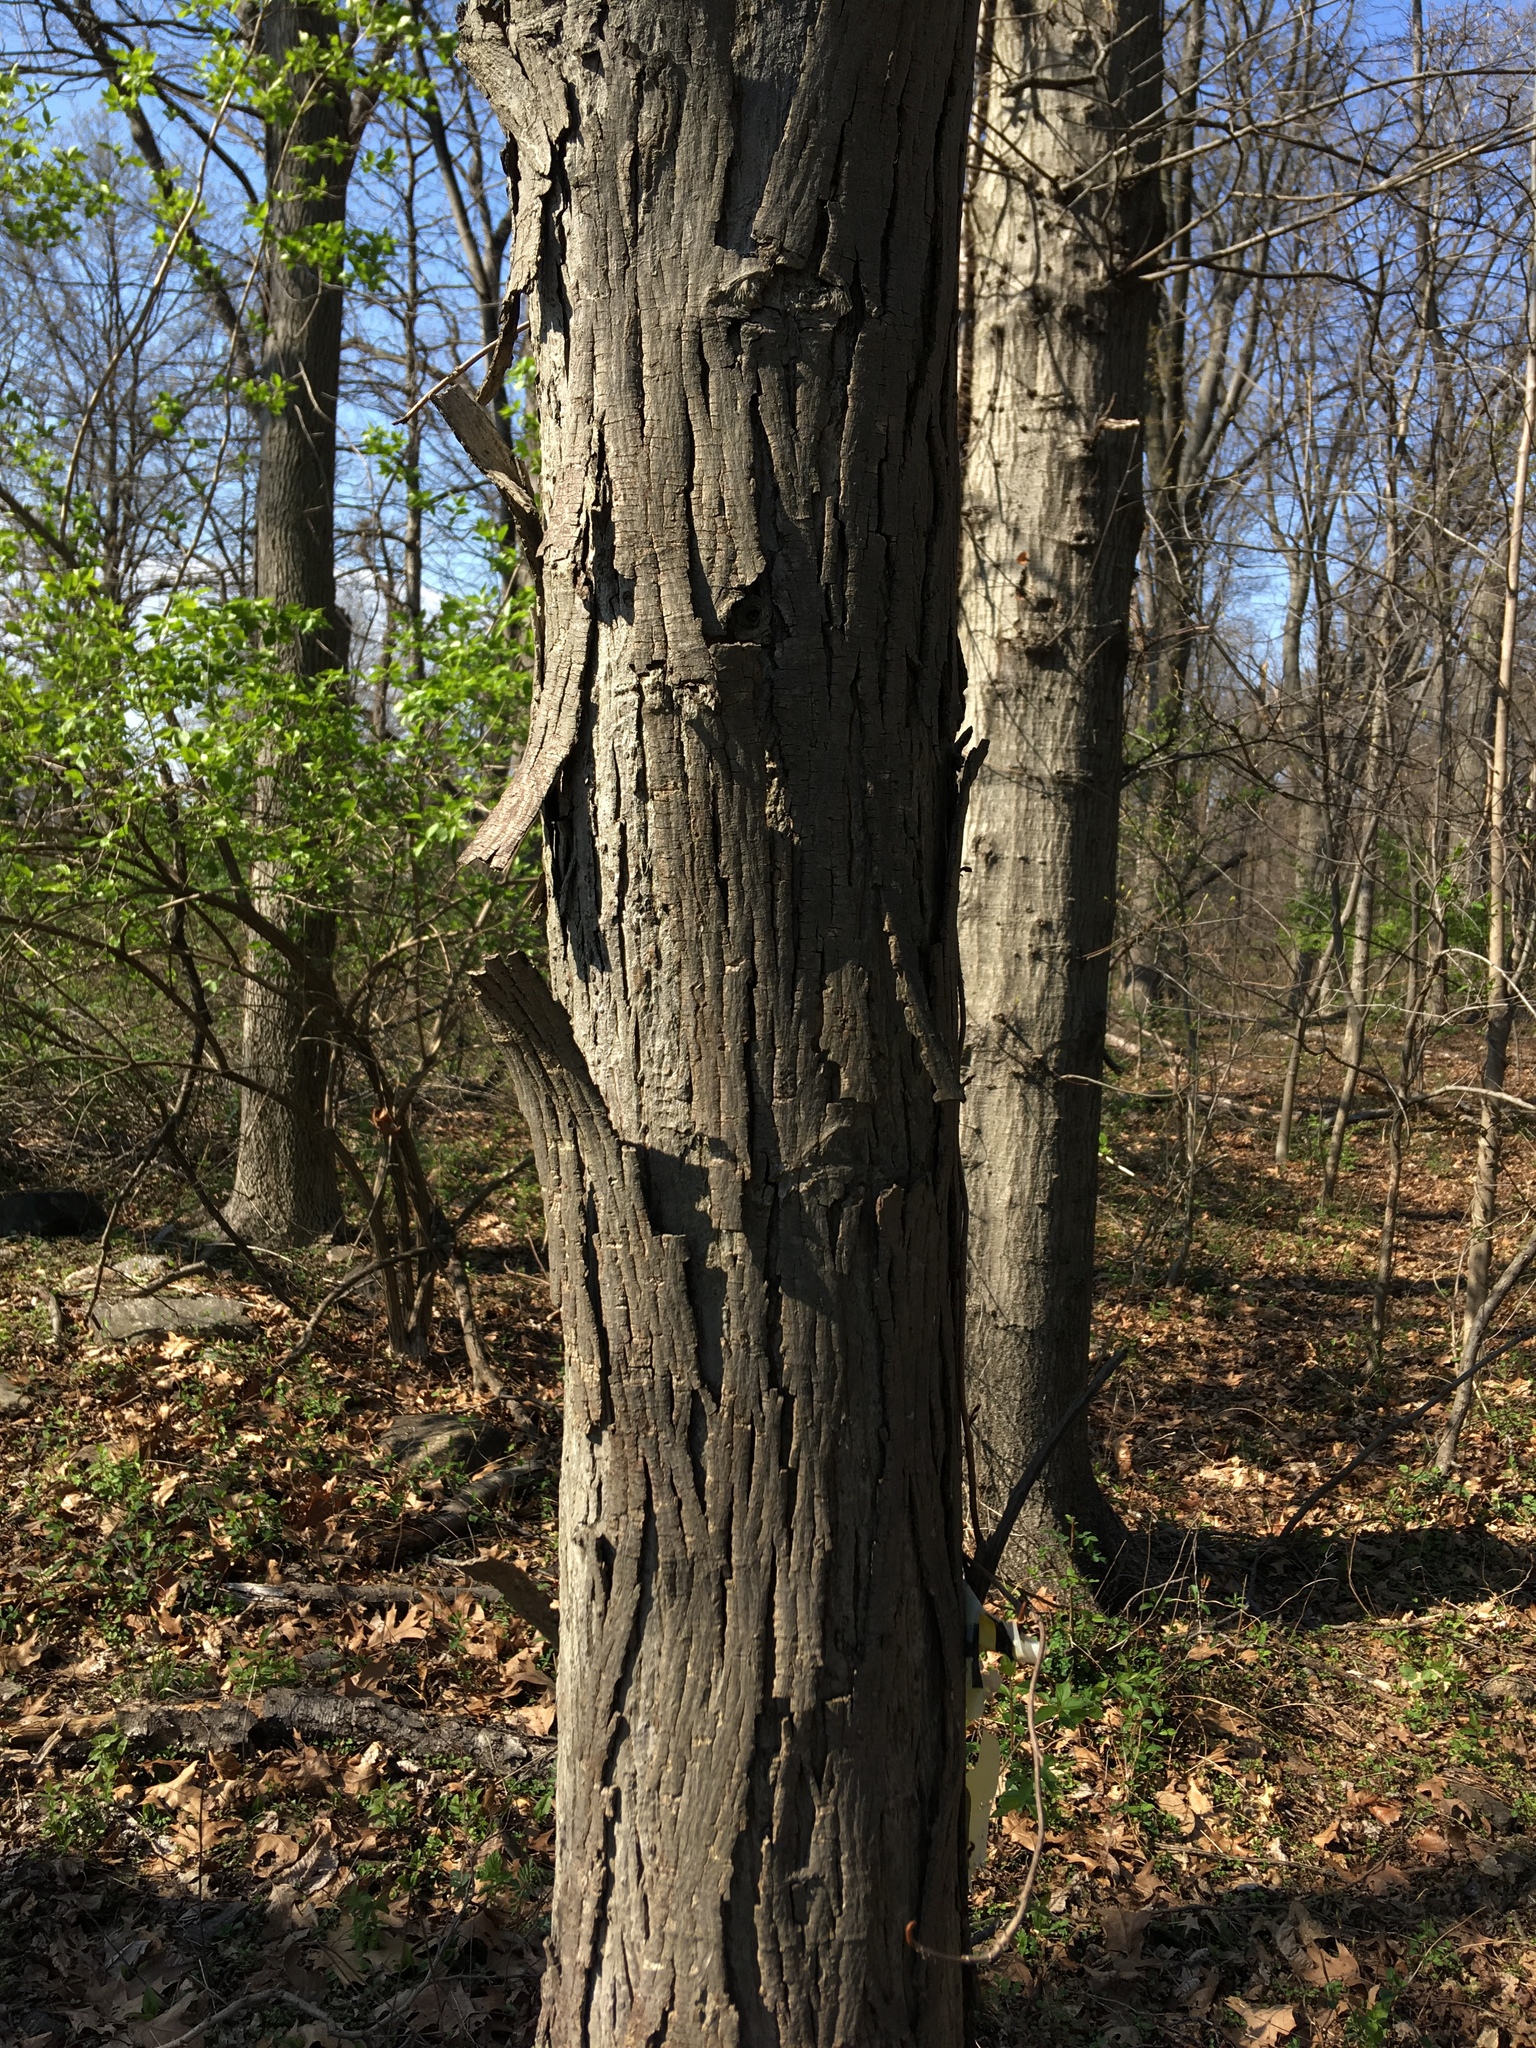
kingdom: Plantae
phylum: Tracheophyta
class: Magnoliopsida
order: Fagales
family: Juglandaceae
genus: Carya
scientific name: Carya ovata
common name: Shagbark hickory
